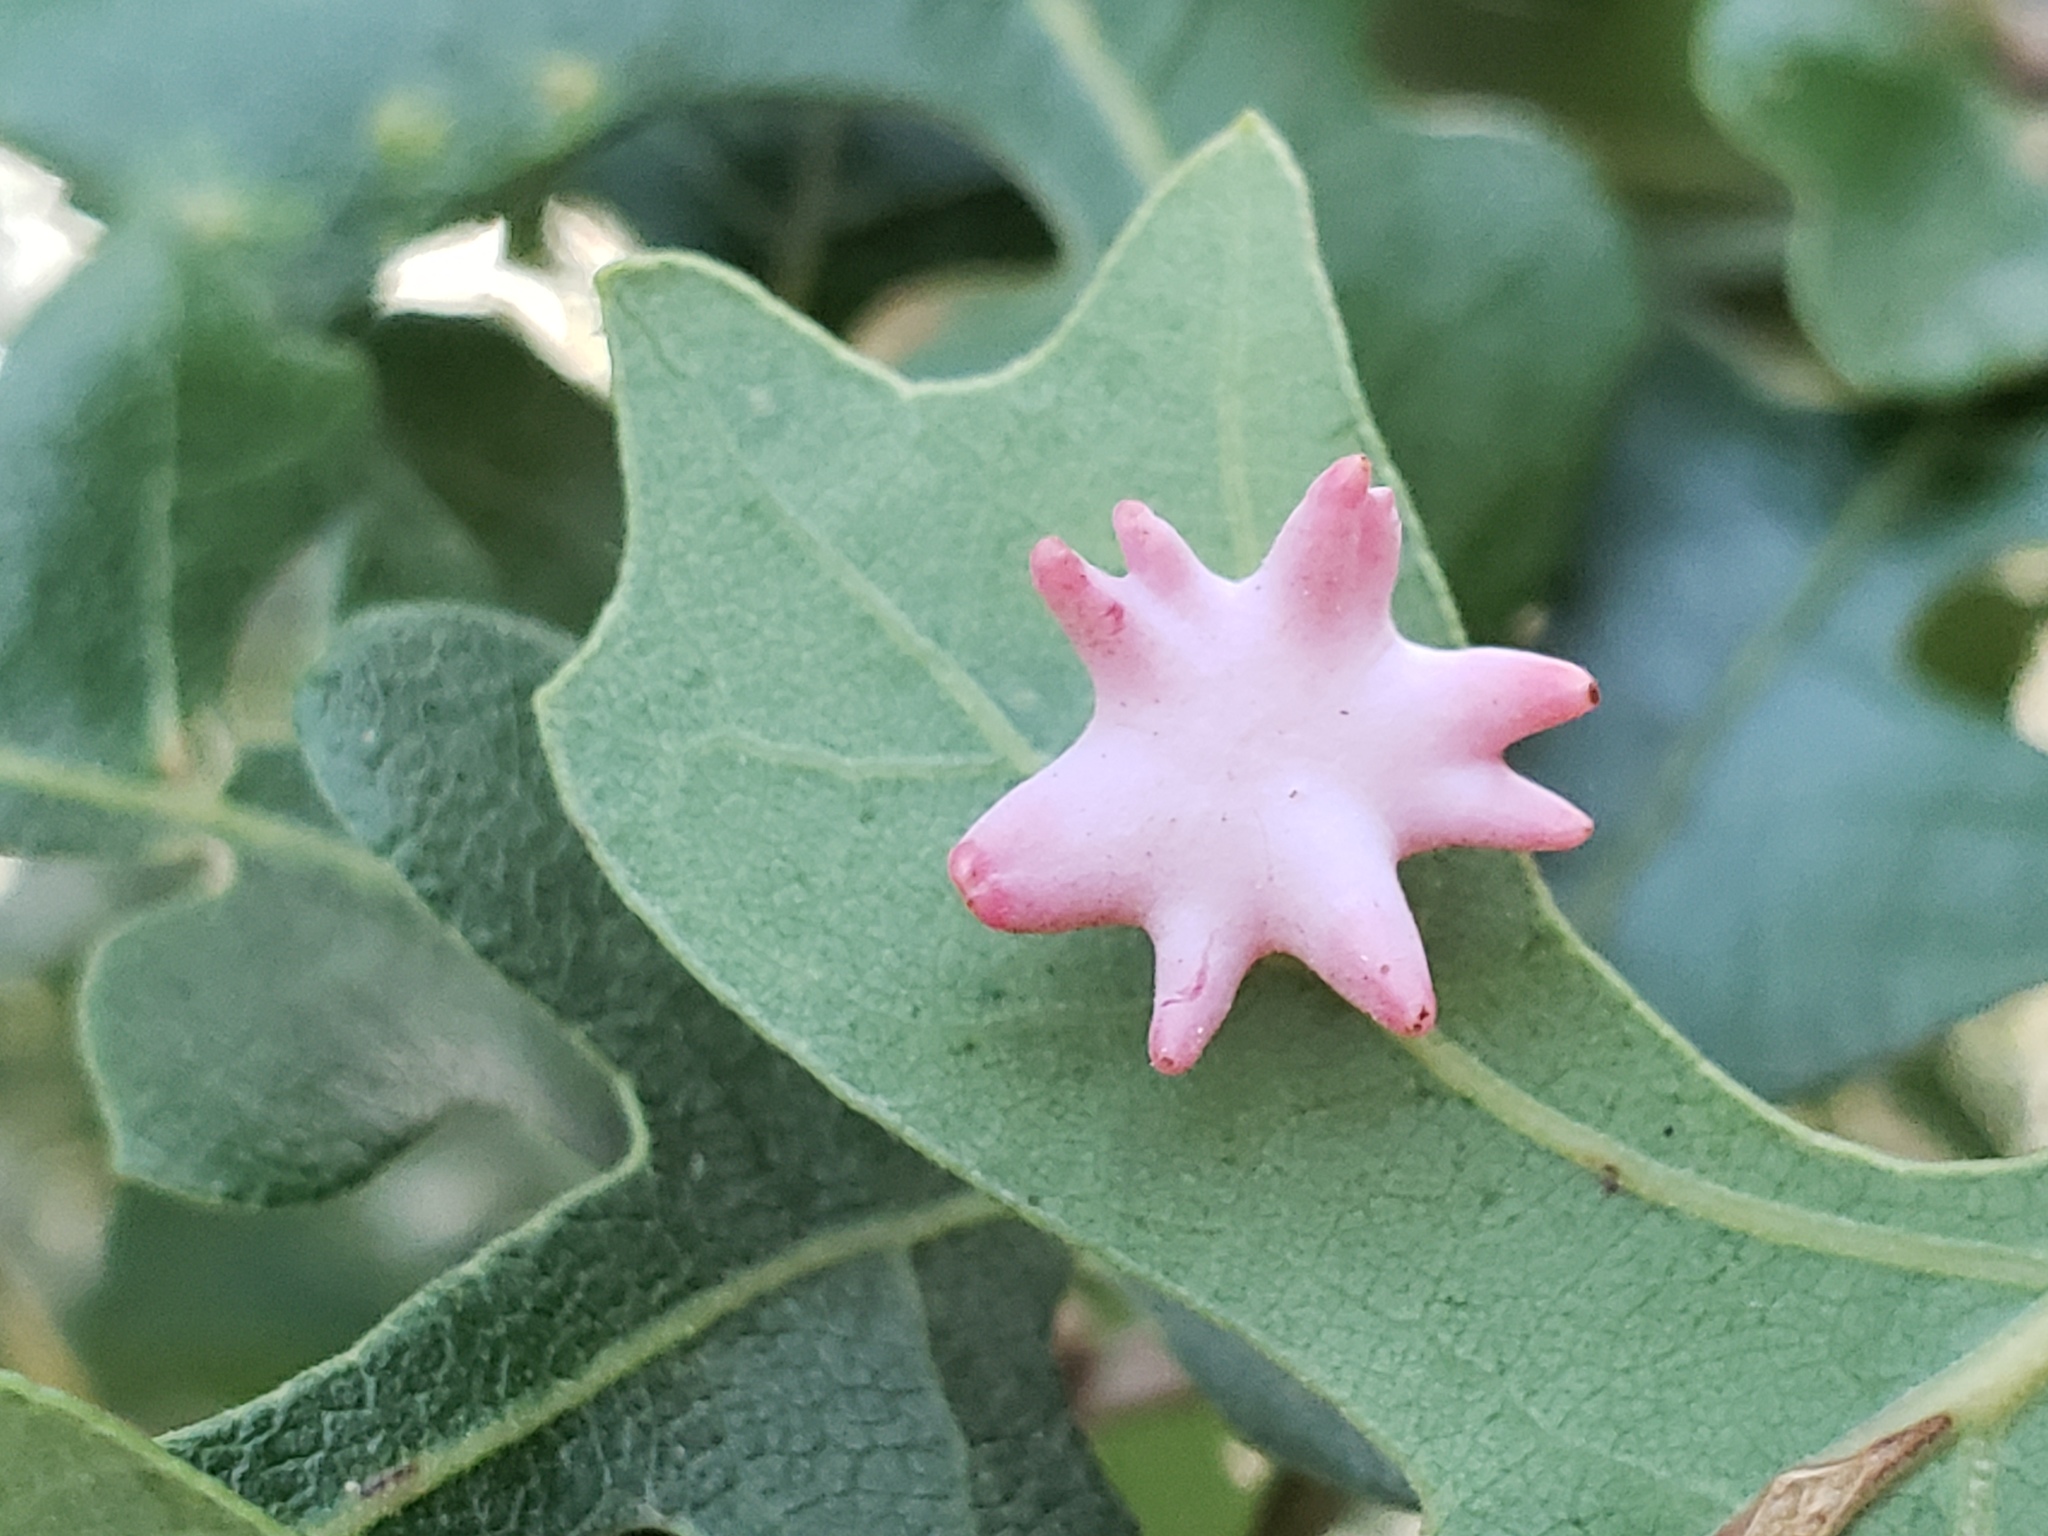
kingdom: Animalia
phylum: Arthropoda
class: Insecta
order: Hymenoptera
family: Cynipidae
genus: Cynips
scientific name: Cynips douglasi
